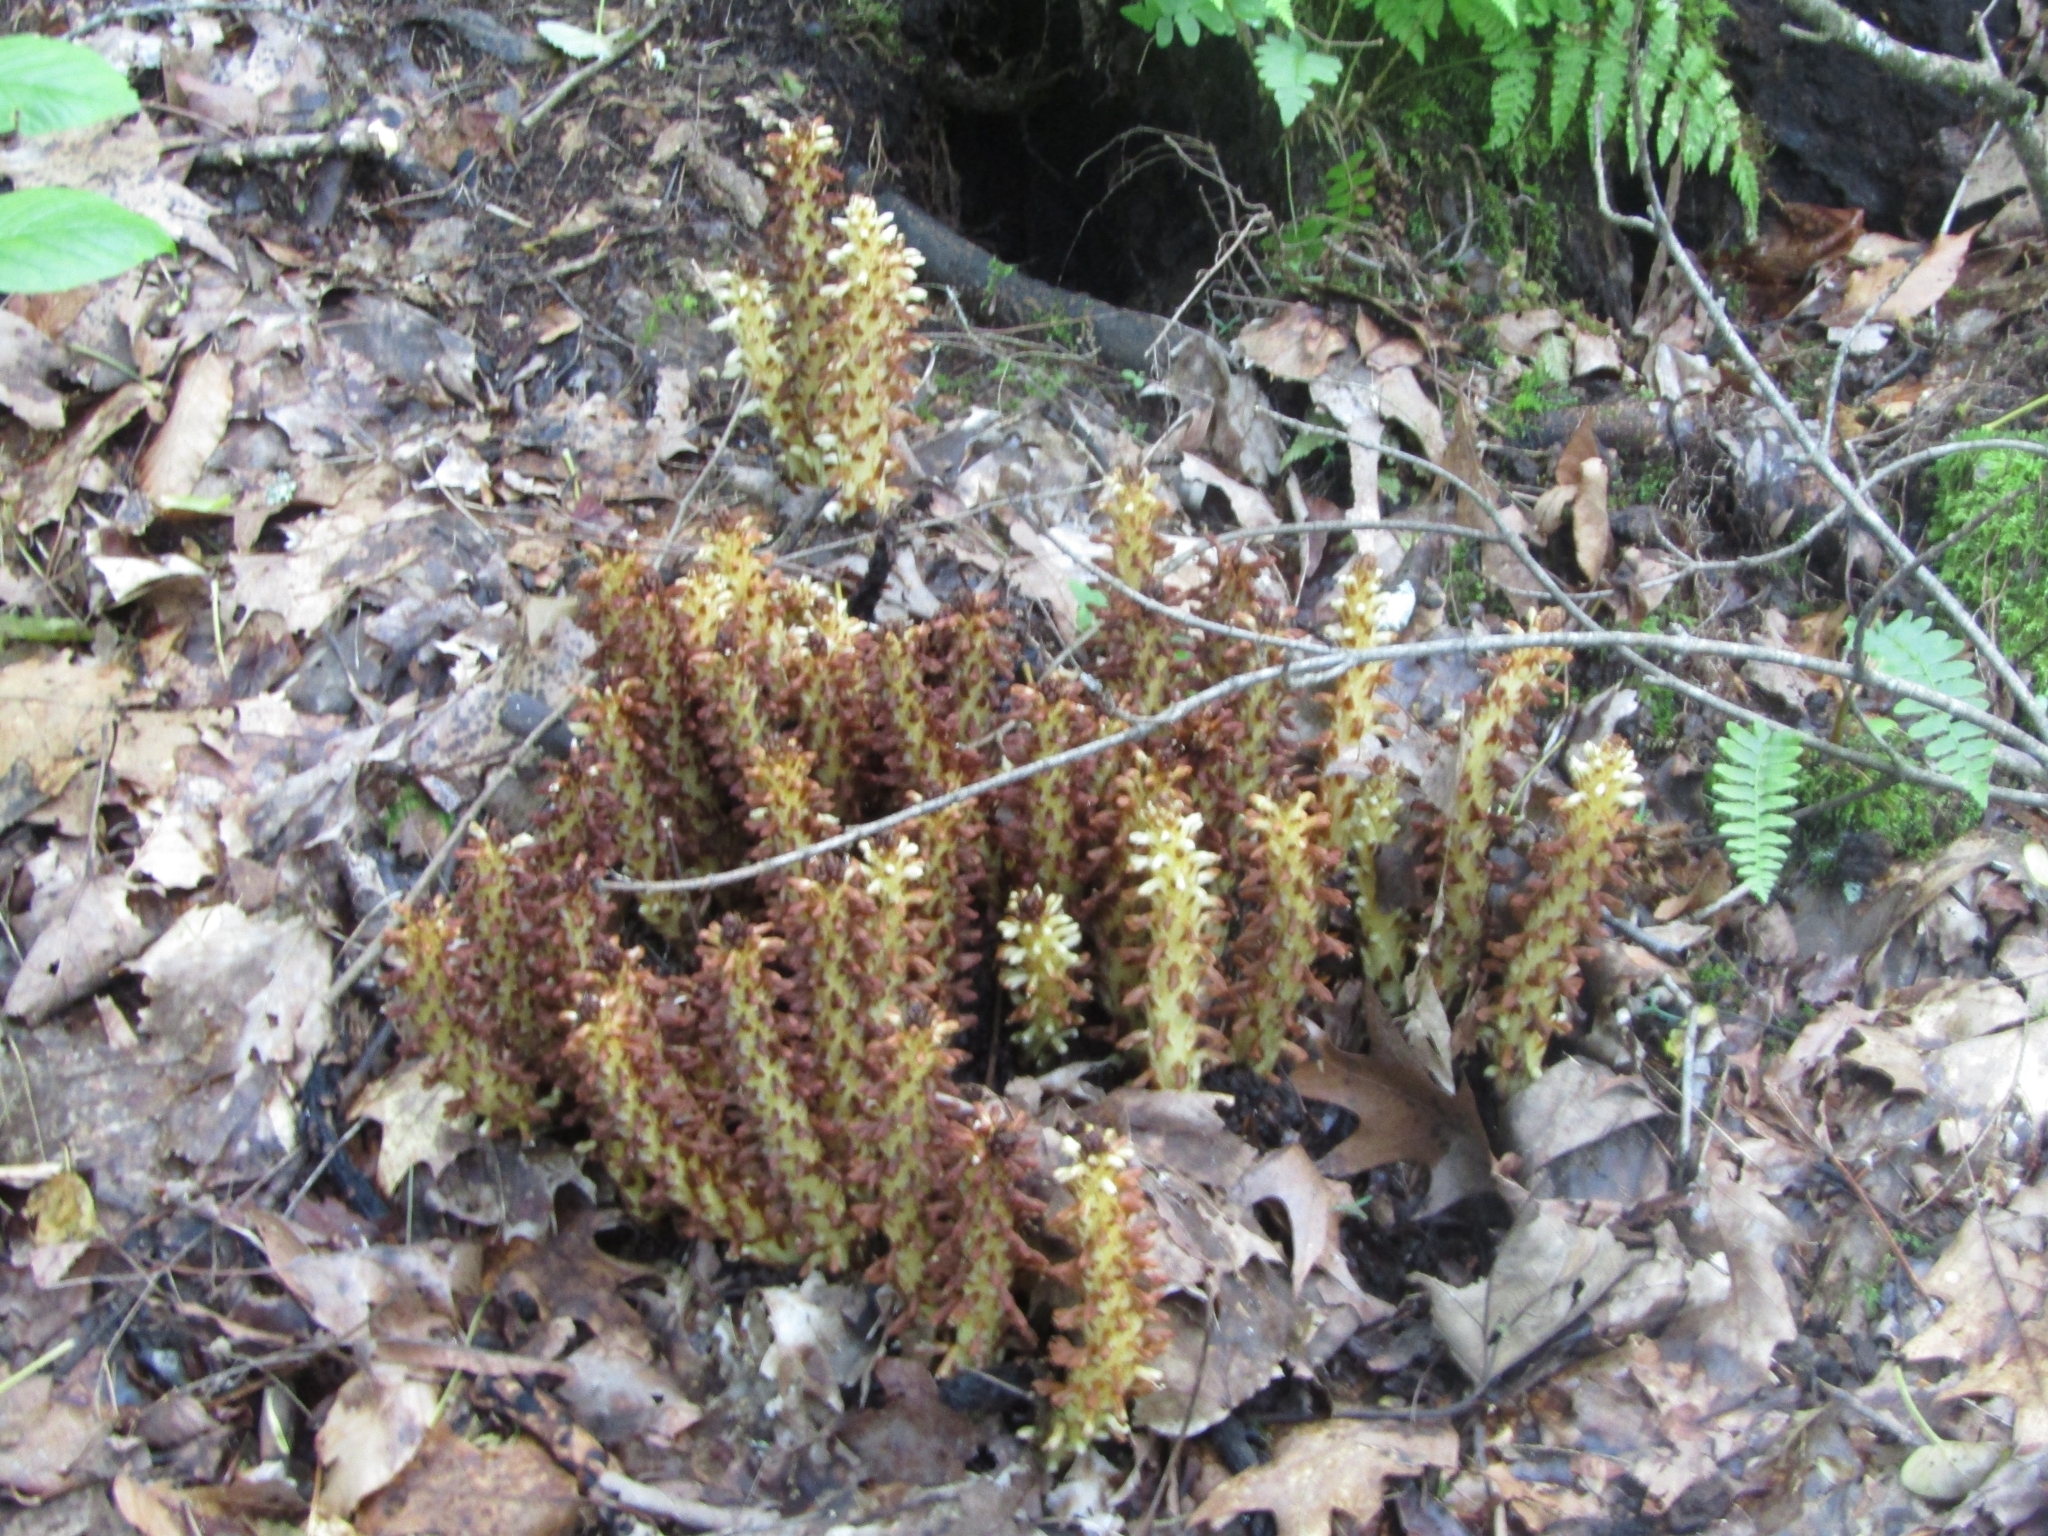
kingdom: Plantae
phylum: Tracheophyta
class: Magnoliopsida
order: Lamiales
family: Orobanchaceae
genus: Conopholis
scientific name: Conopholis americana
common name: American cancer-root
